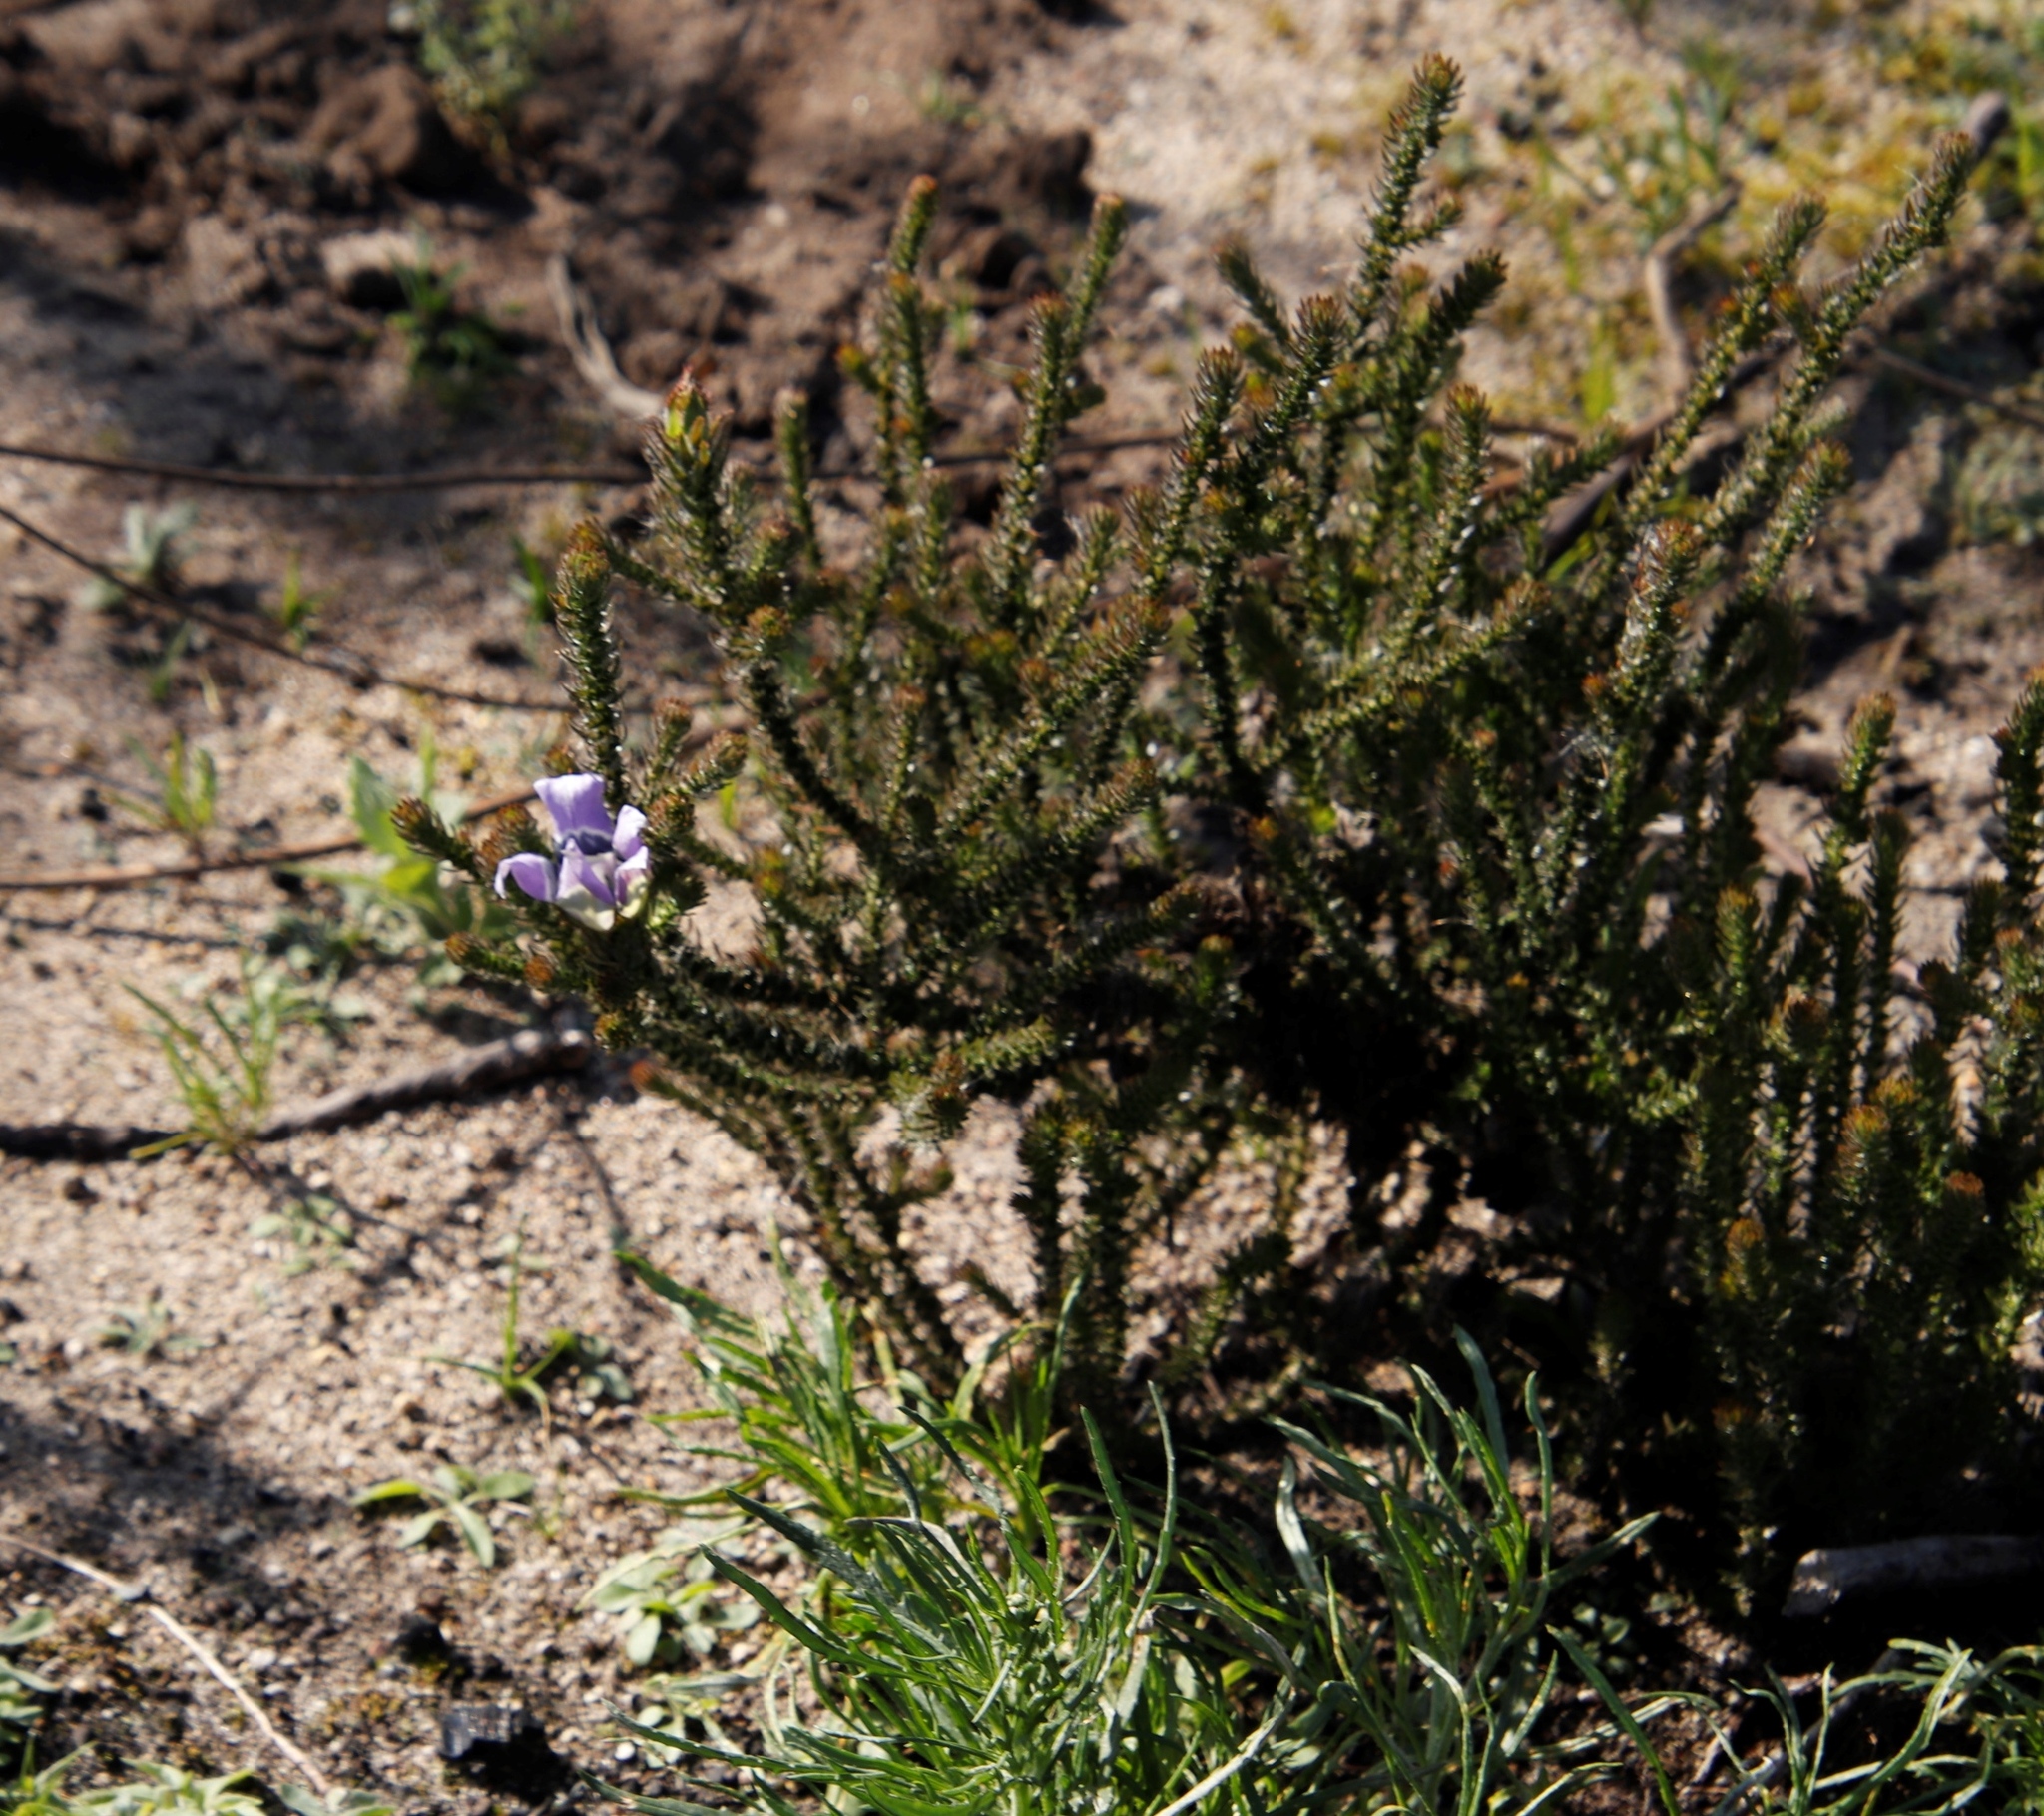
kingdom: Plantae
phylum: Tracheophyta
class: Magnoliopsida
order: Asterales
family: Campanulaceae
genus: Roella
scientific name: Roella ciliata
